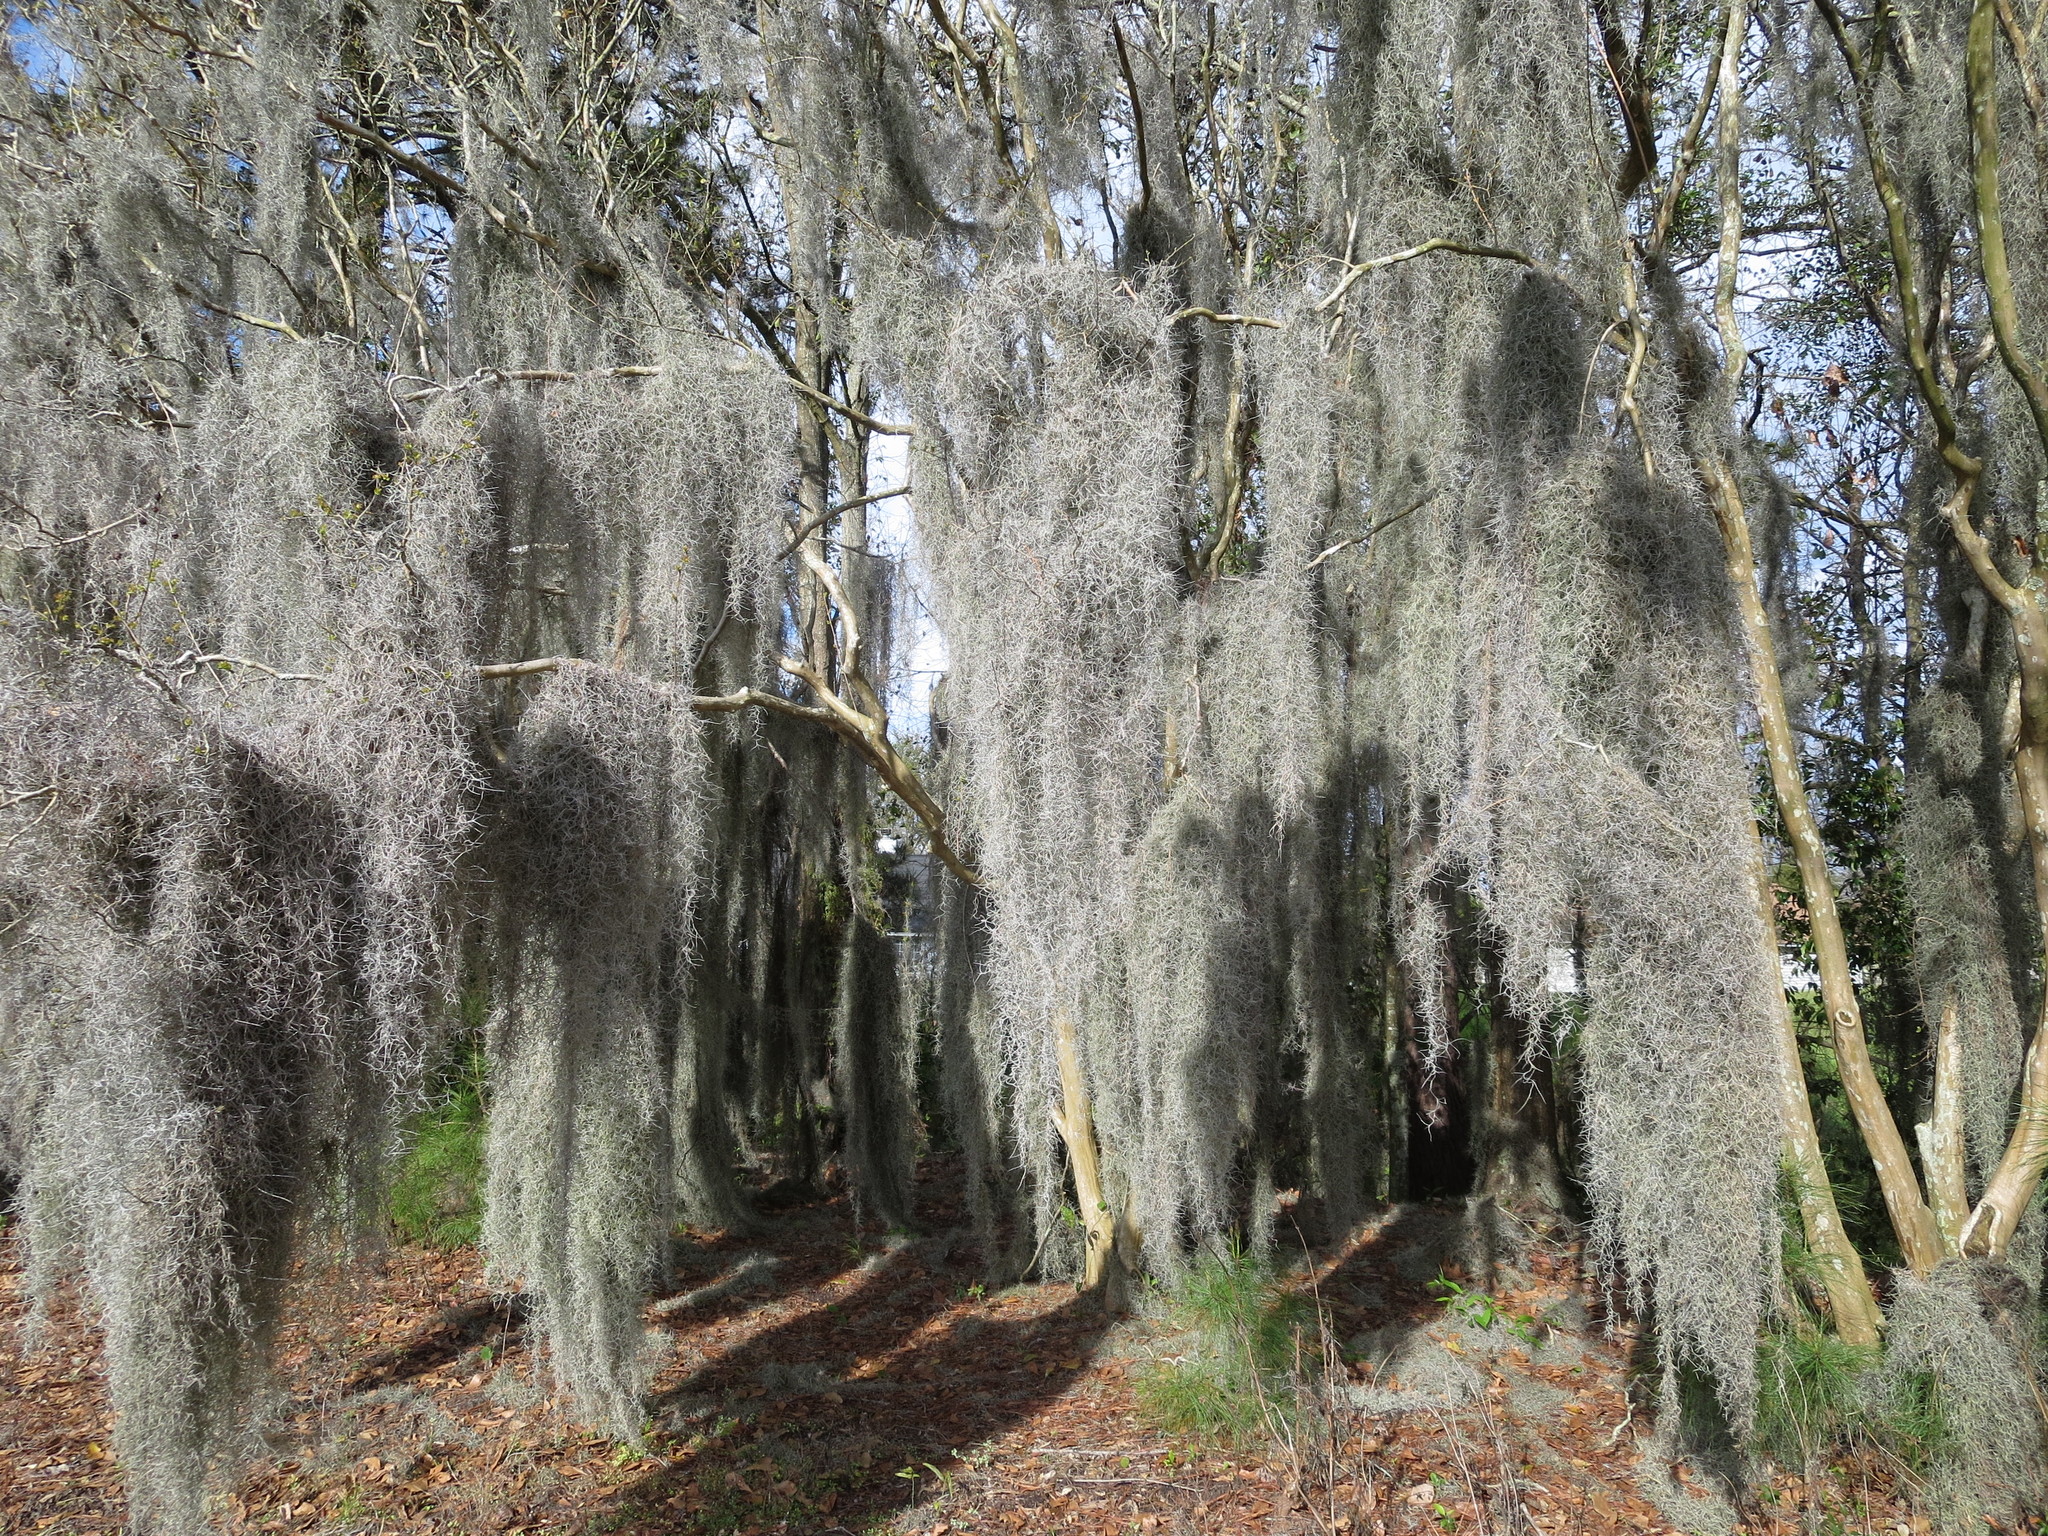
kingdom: Plantae
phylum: Tracheophyta
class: Liliopsida
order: Poales
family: Bromeliaceae
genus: Tillandsia
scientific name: Tillandsia usneoides
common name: Spanish moss
